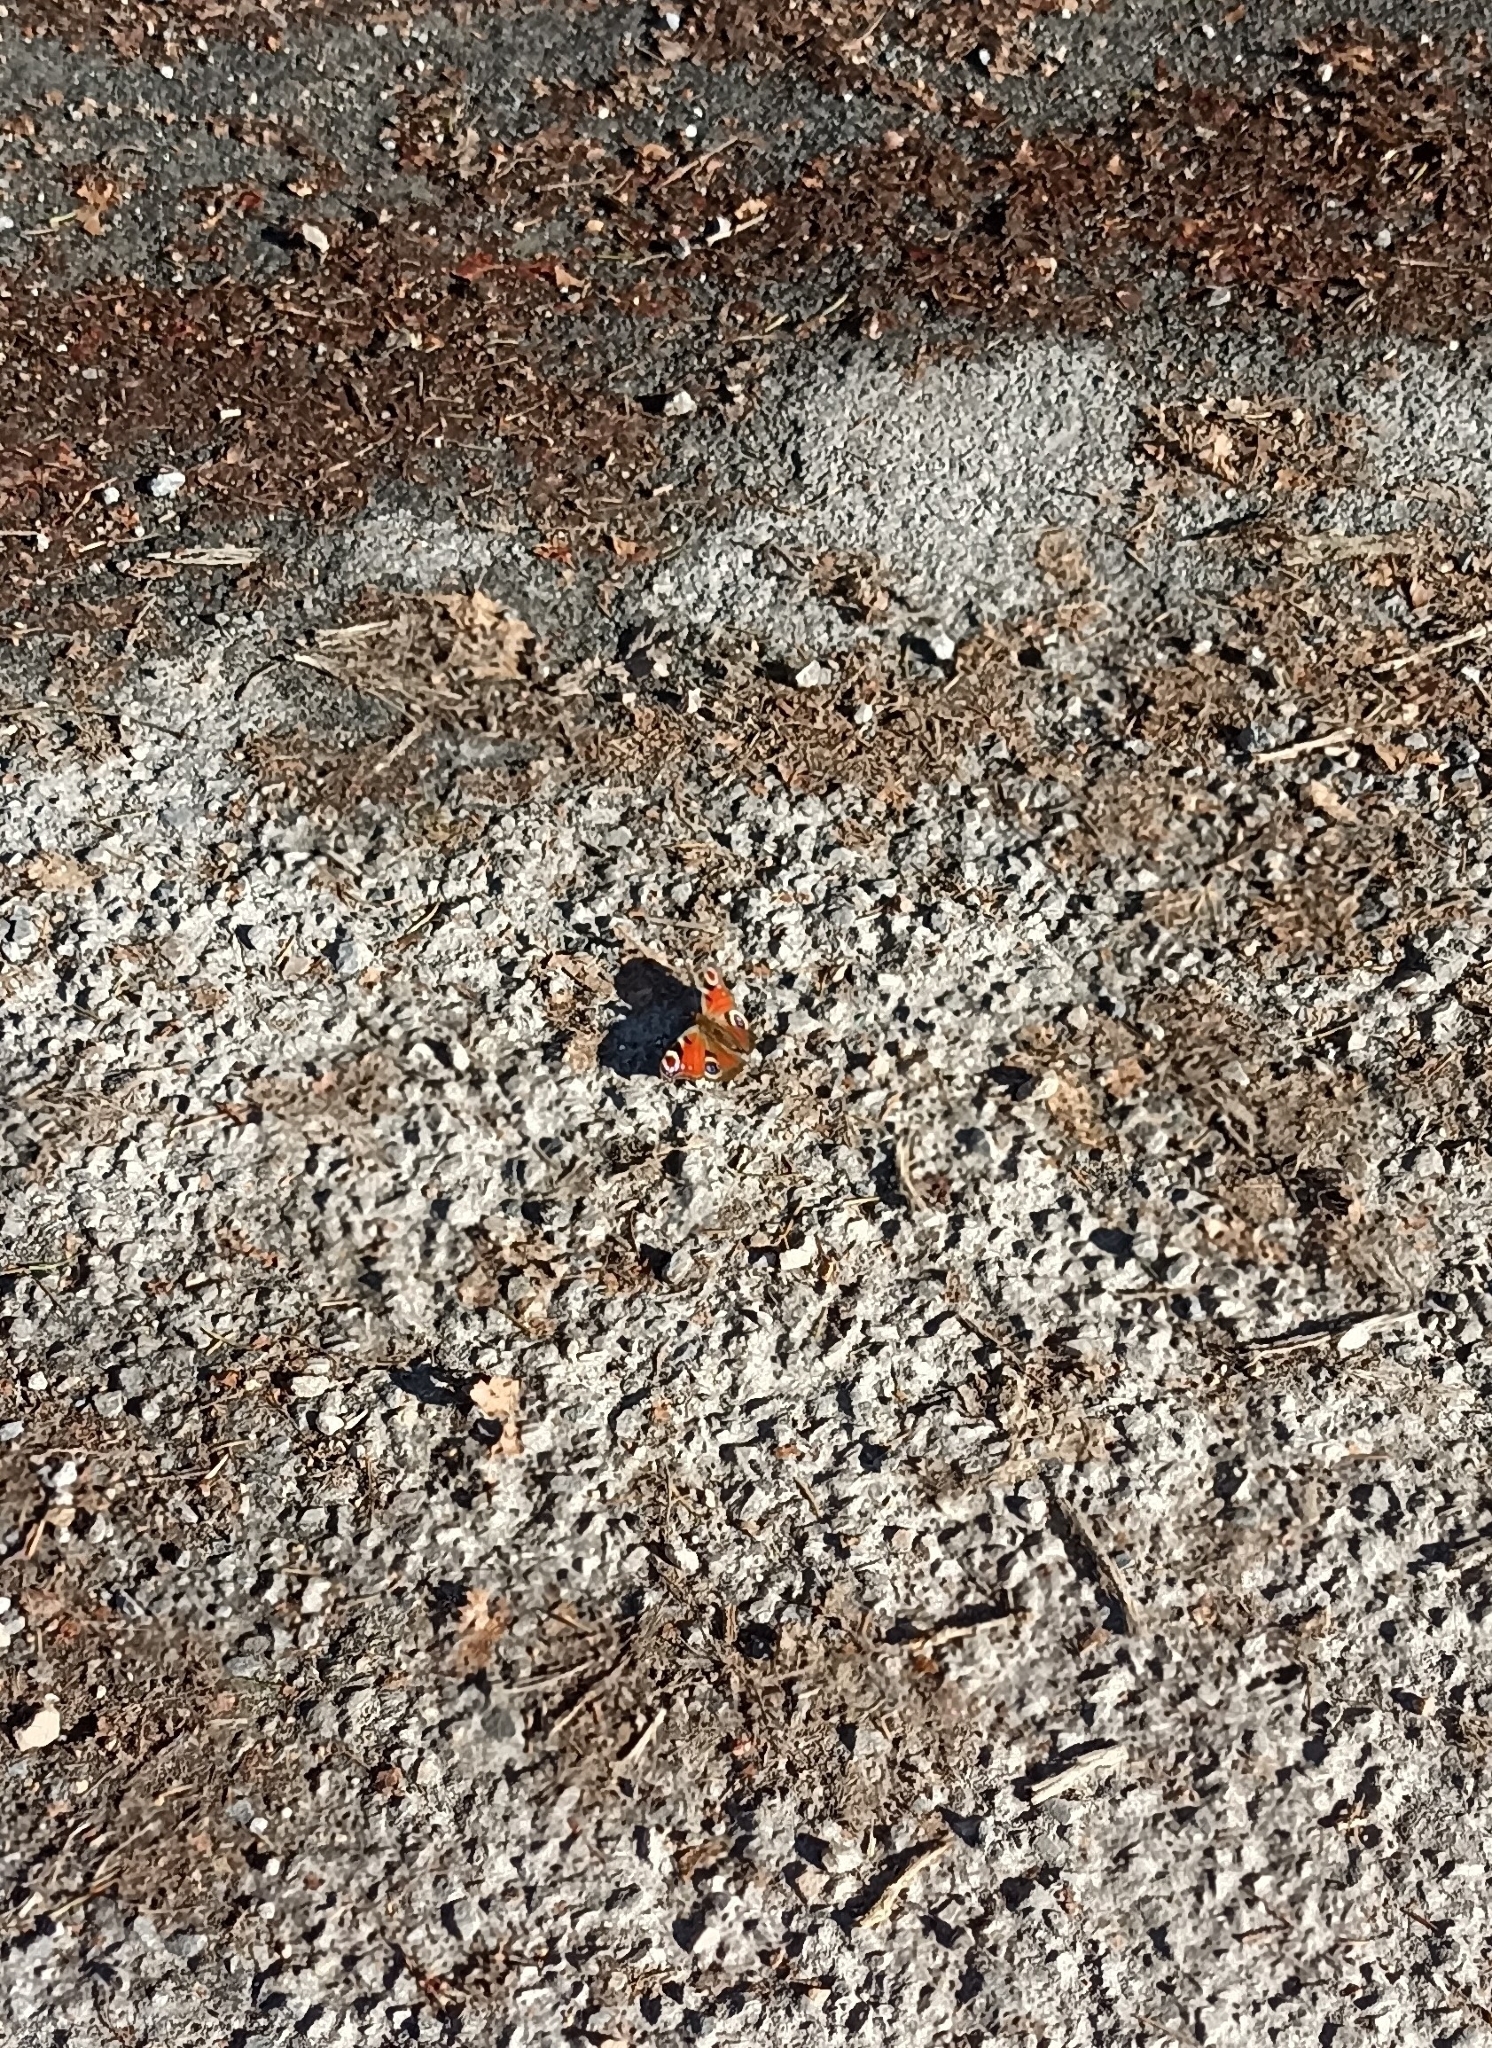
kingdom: Animalia
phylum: Arthropoda
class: Insecta
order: Lepidoptera
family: Nymphalidae
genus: Aglais
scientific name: Aglais io
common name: Peacock
